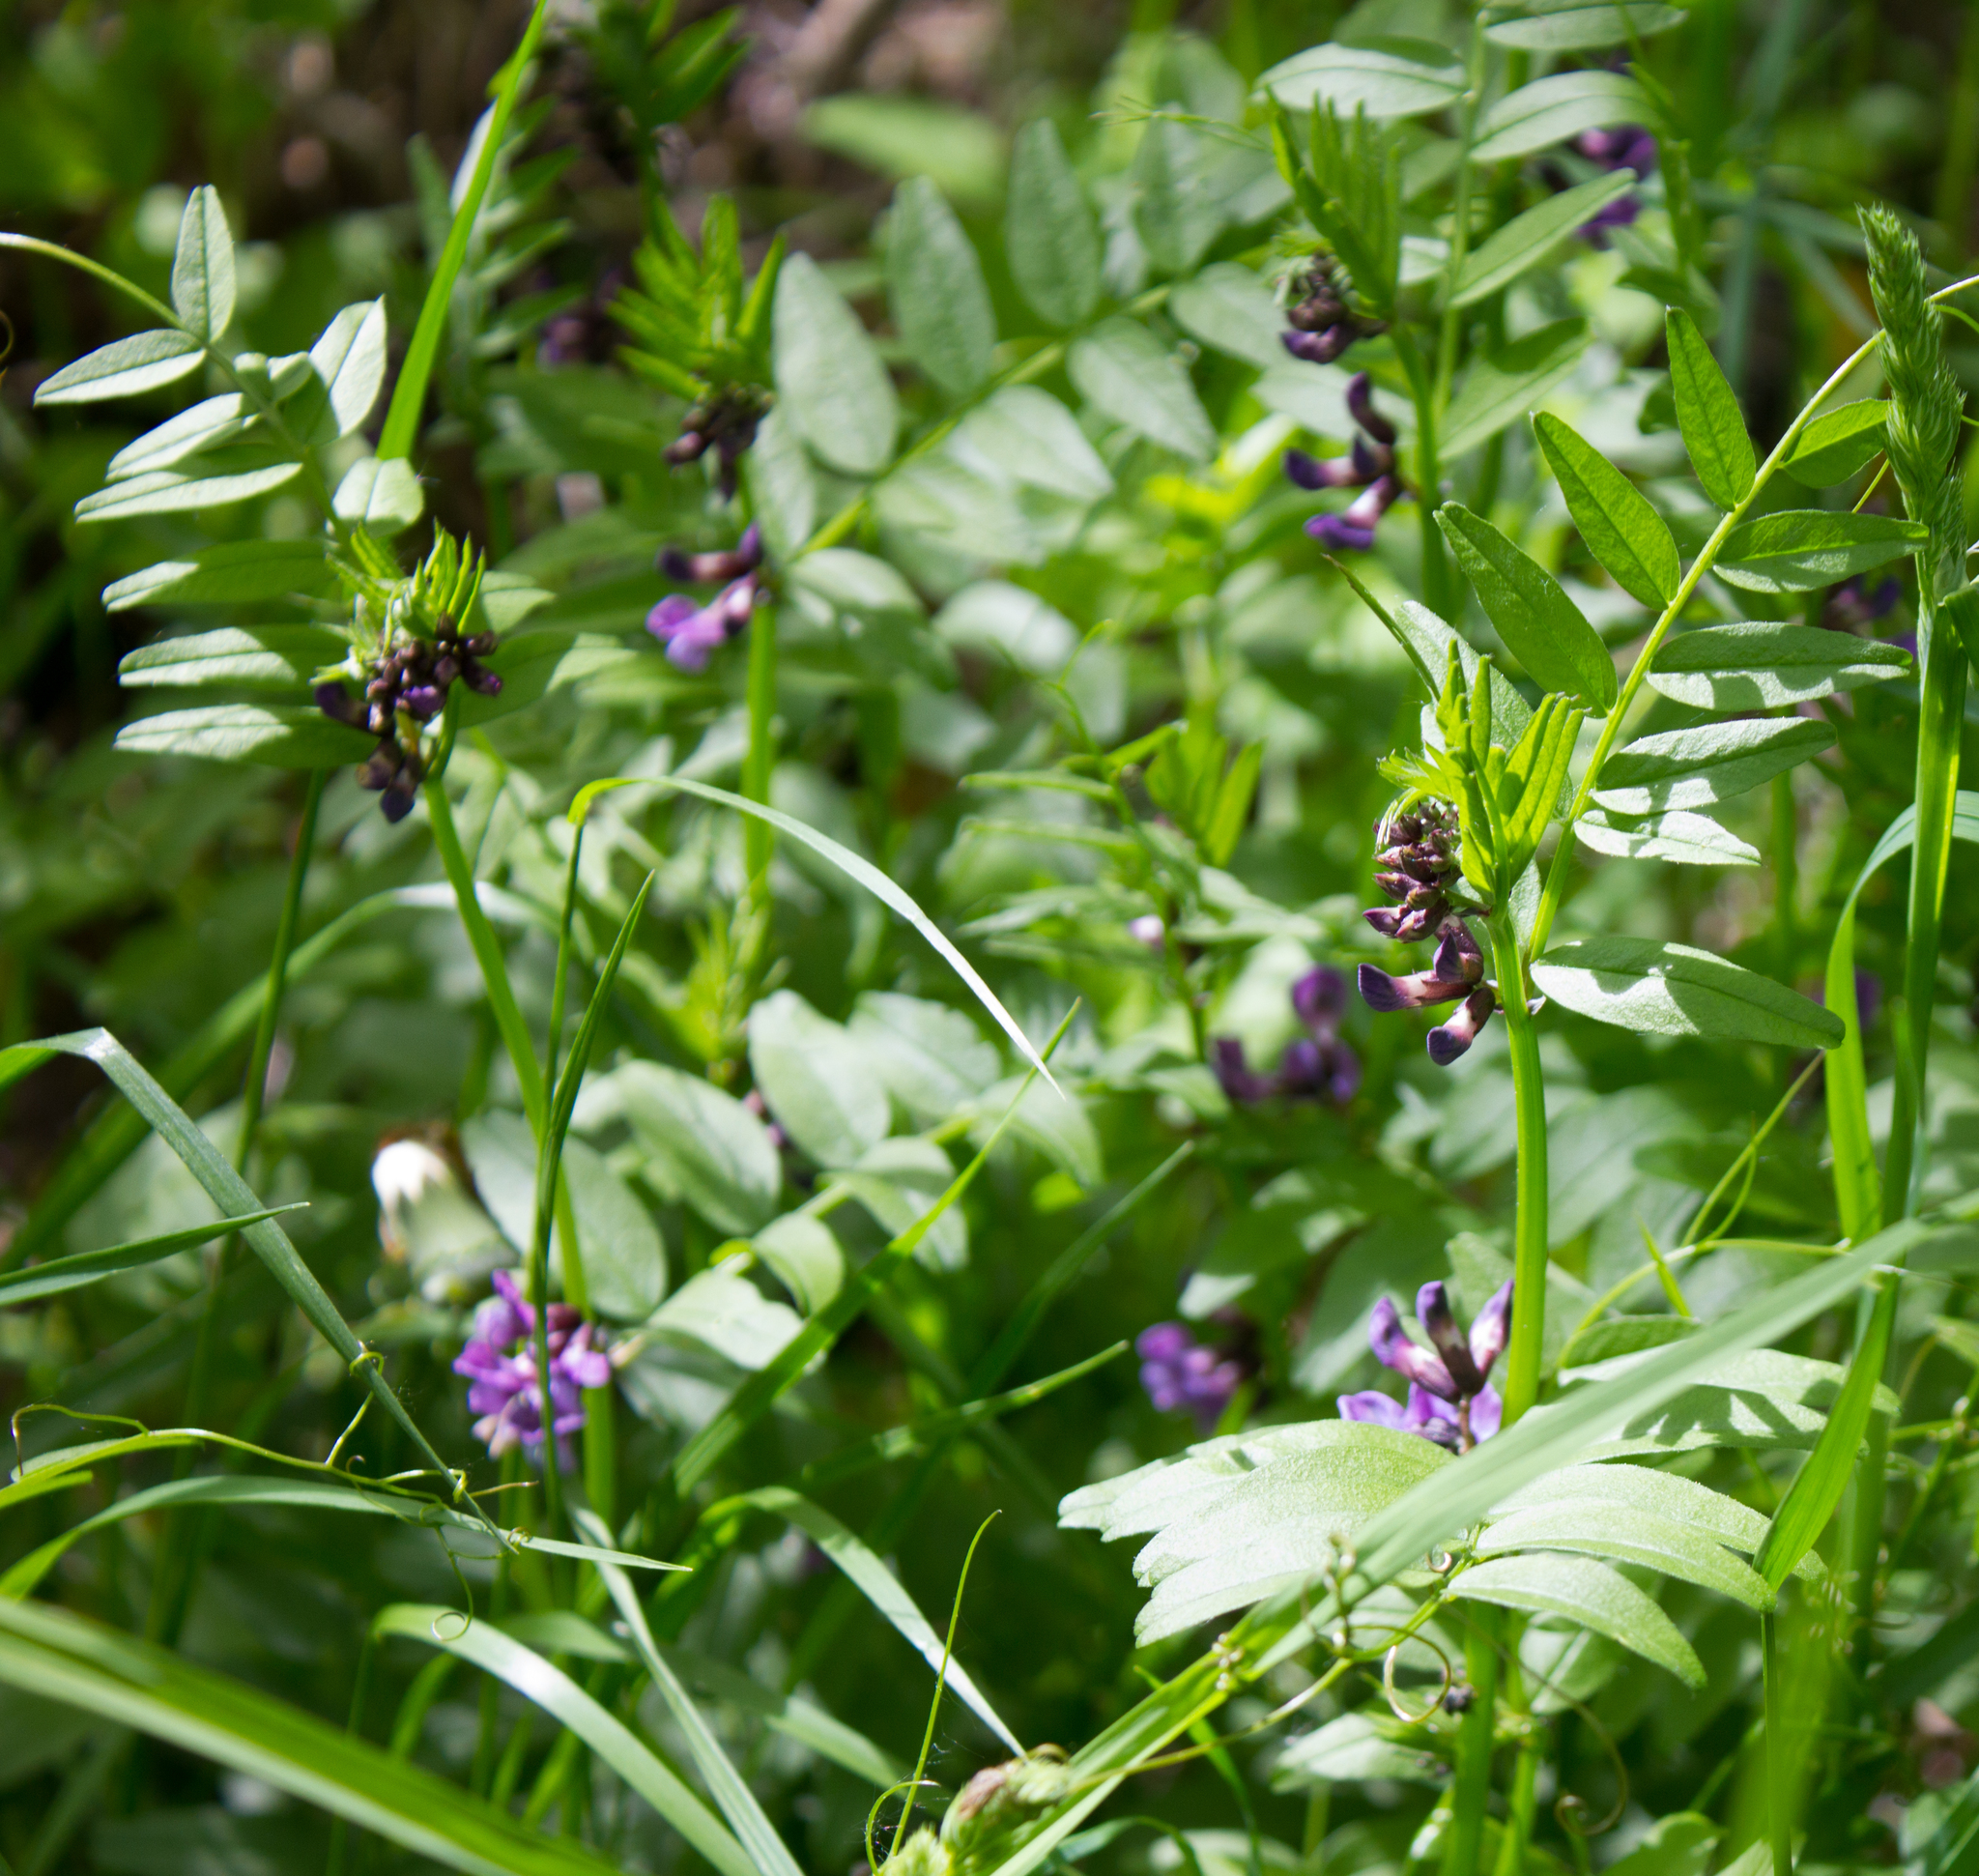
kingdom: Plantae
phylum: Tracheophyta
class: Magnoliopsida
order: Fabales
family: Fabaceae
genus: Vicia
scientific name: Vicia sepium
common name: Bush vetch
